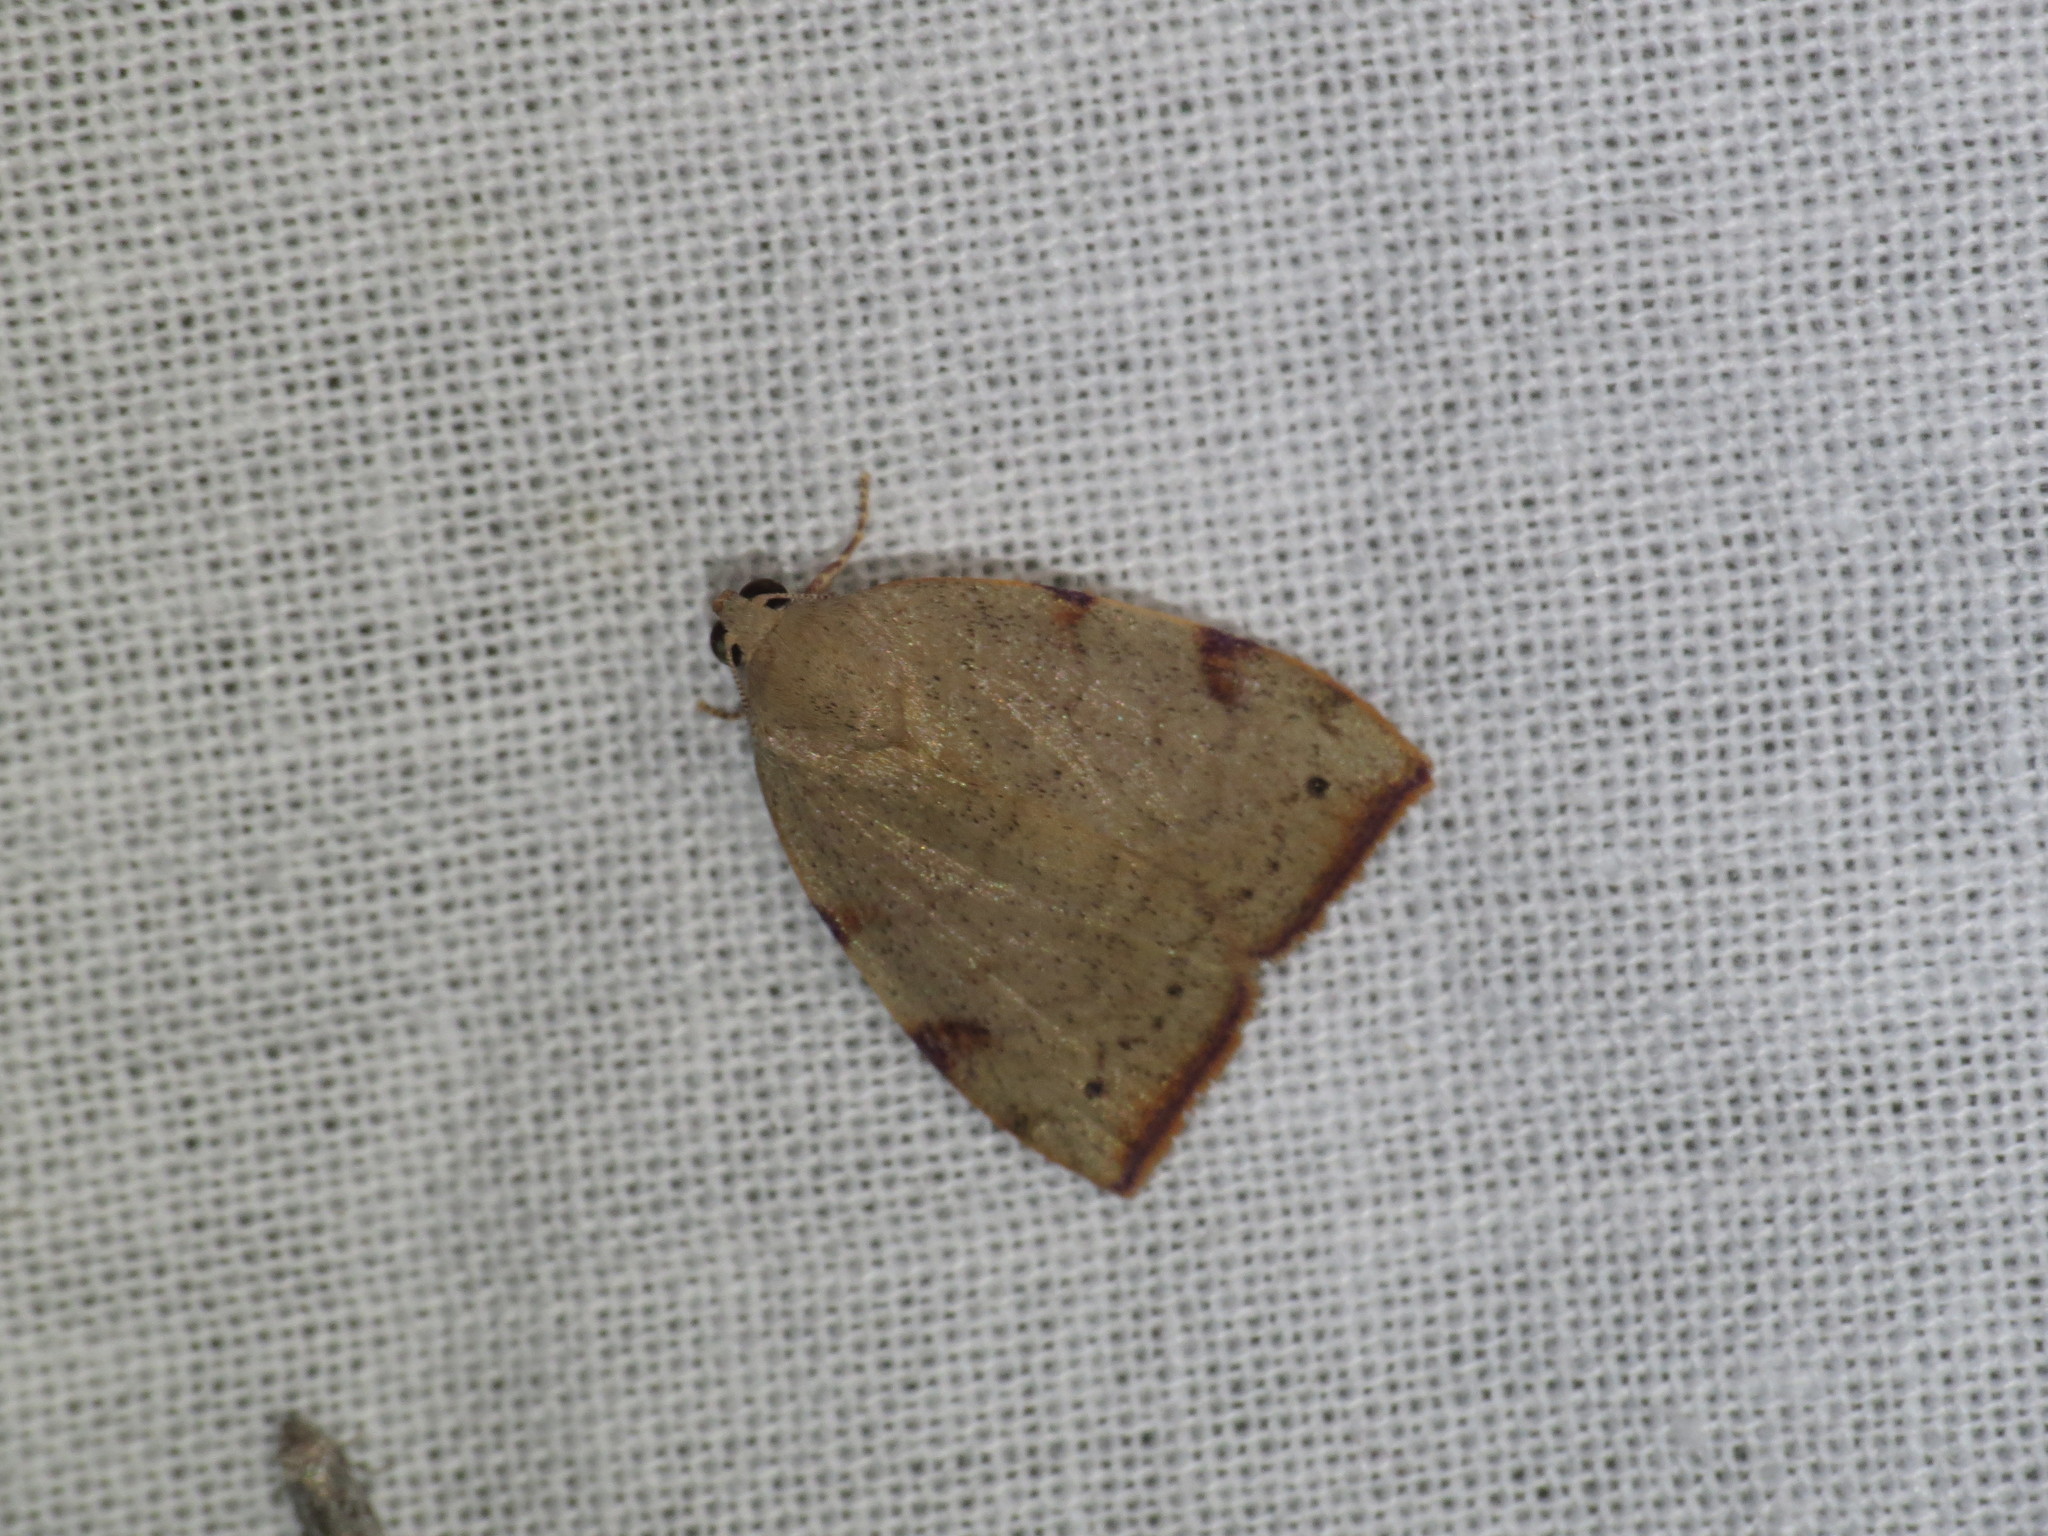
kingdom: Animalia
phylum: Arthropoda
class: Insecta
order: Lepidoptera
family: Nolidae
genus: Detounda
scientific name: Detounda leptoplasta
